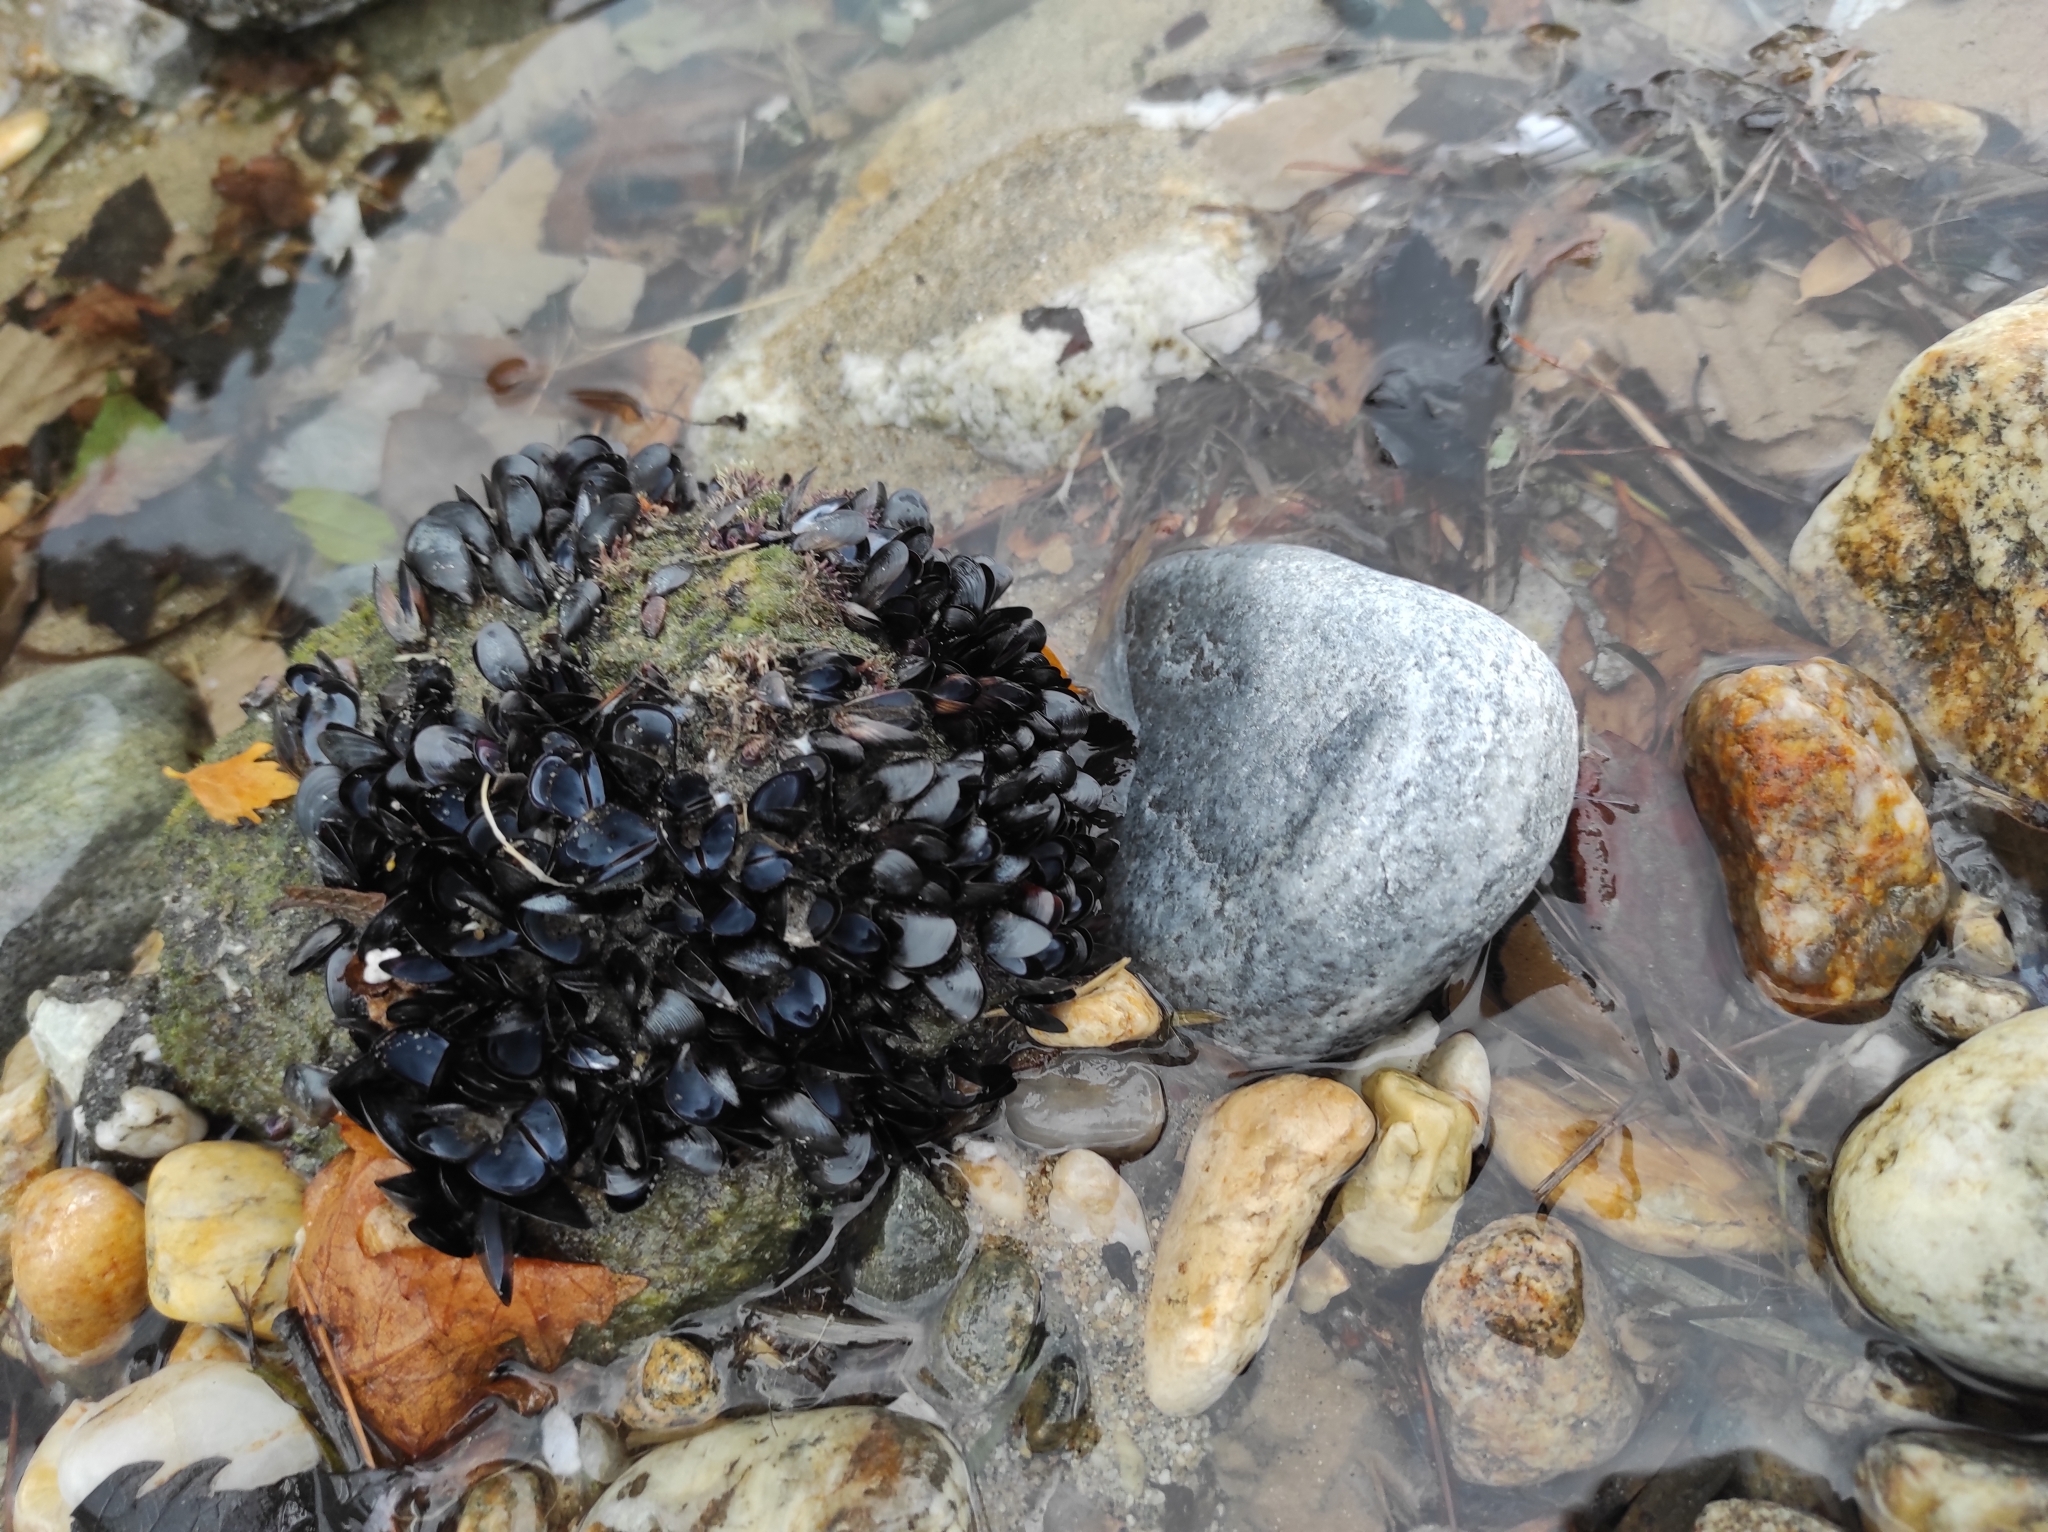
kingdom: Animalia
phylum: Mollusca
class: Bivalvia
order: Mytilida
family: Mytilidae
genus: Mytilus
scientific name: Mytilus galloprovincialis
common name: Mediterranean mussel
